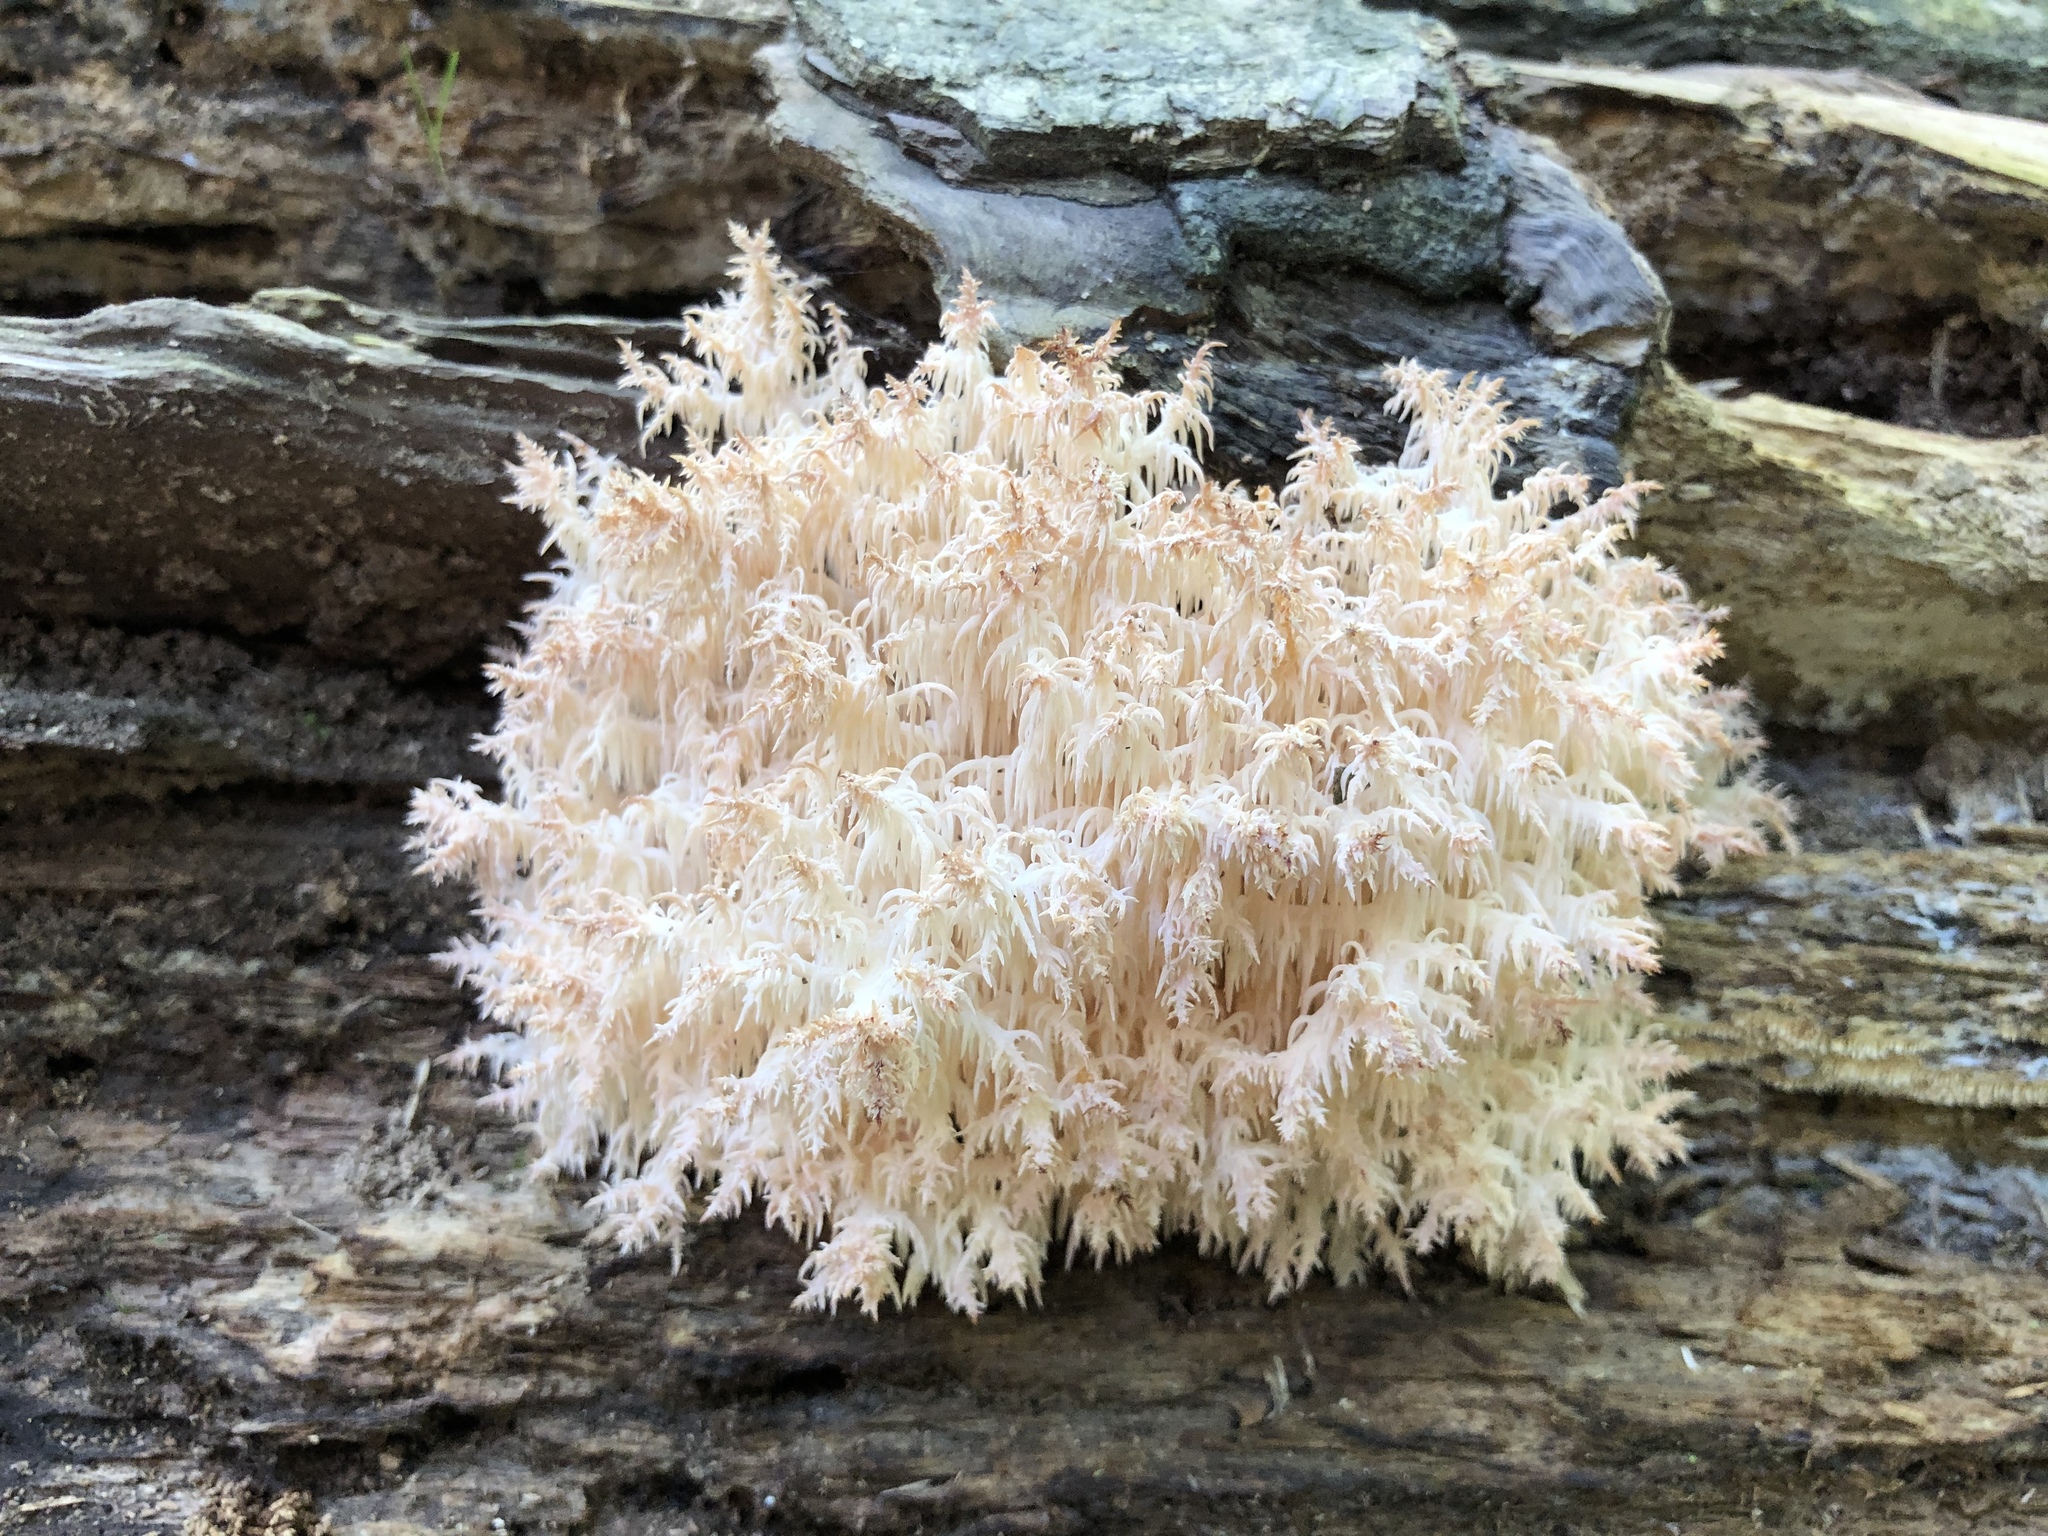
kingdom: Fungi
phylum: Basidiomycota
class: Agaricomycetes
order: Russulales
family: Hericiaceae
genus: Hericium
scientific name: Hericium novae-zealandiae
